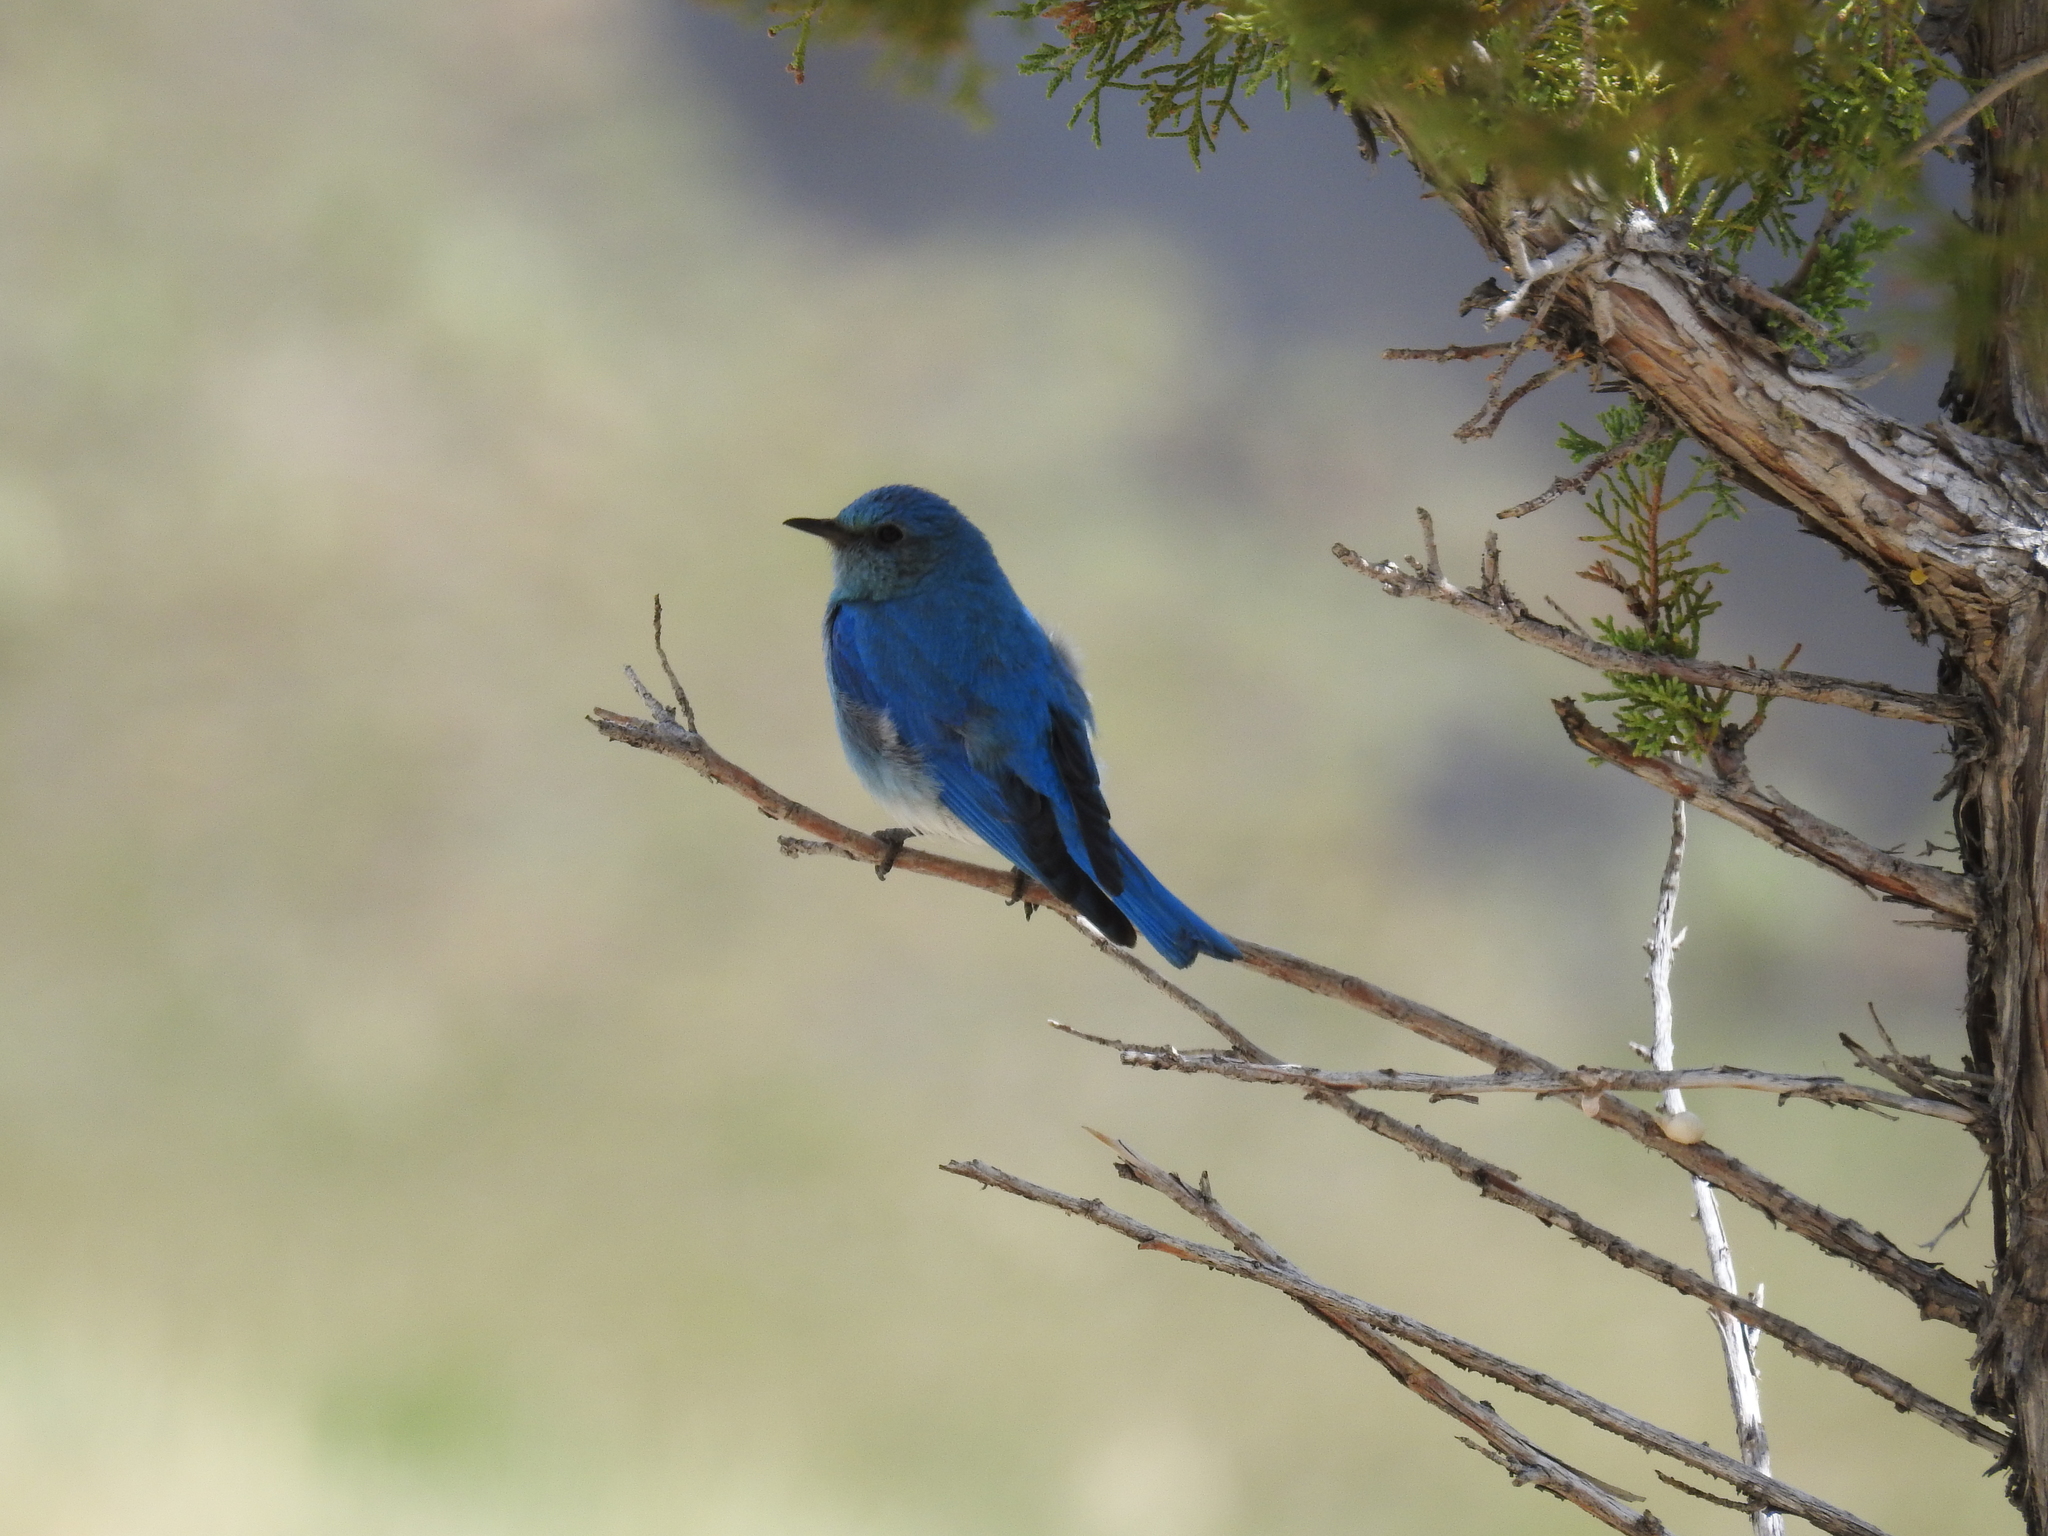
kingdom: Animalia
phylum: Chordata
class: Aves
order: Passeriformes
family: Turdidae
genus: Sialia
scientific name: Sialia currucoides
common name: Mountain bluebird
